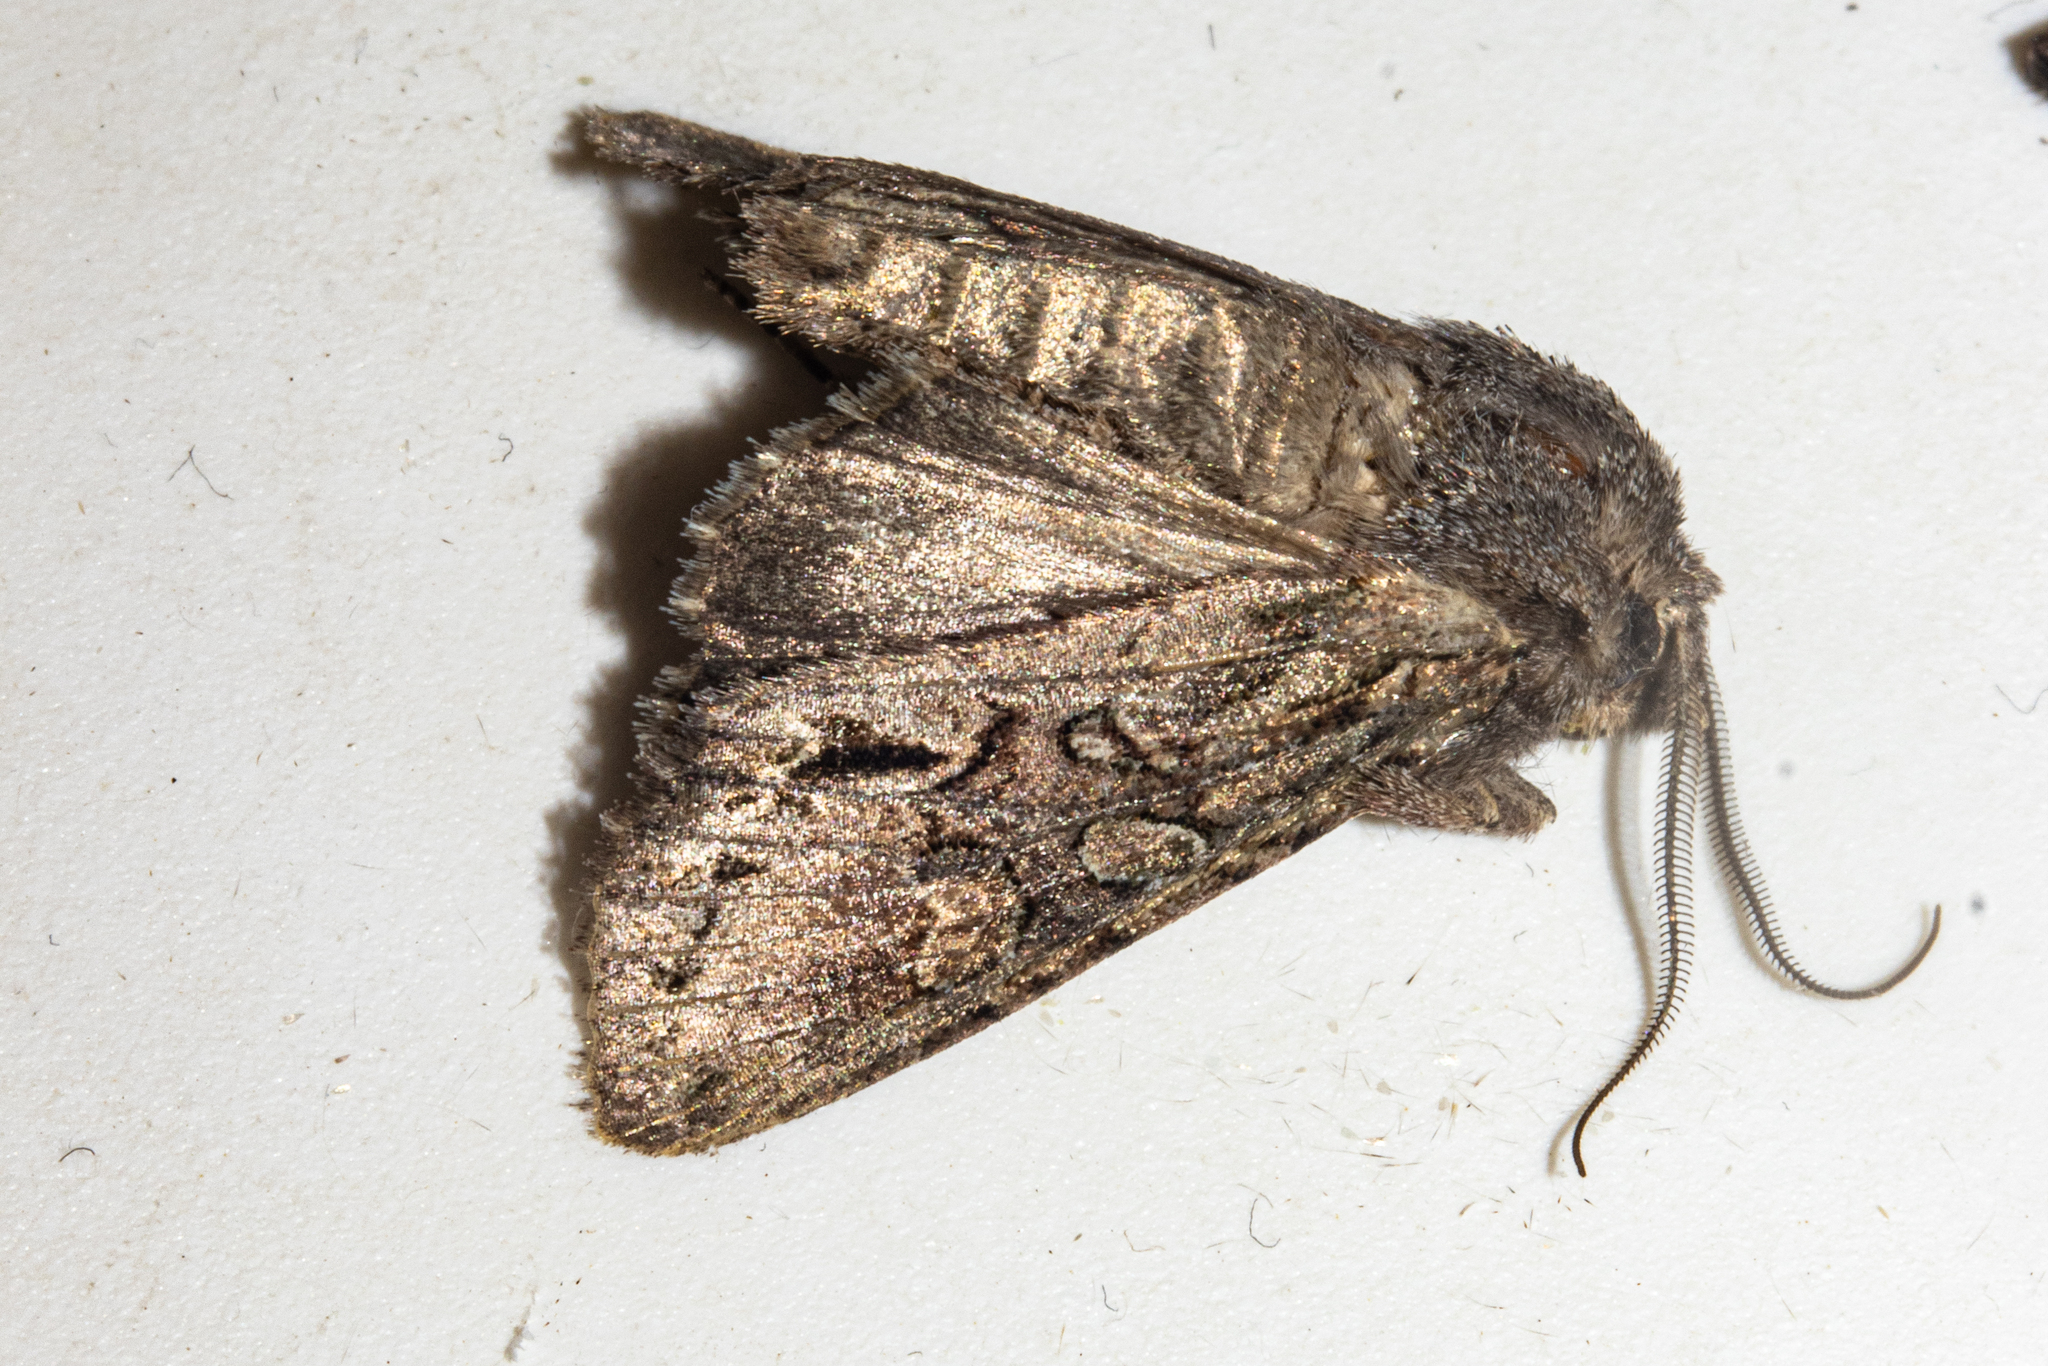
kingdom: Animalia
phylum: Arthropoda
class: Insecta
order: Lepidoptera
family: Noctuidae
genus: Ichneutica
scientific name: Ichneutica mutans
